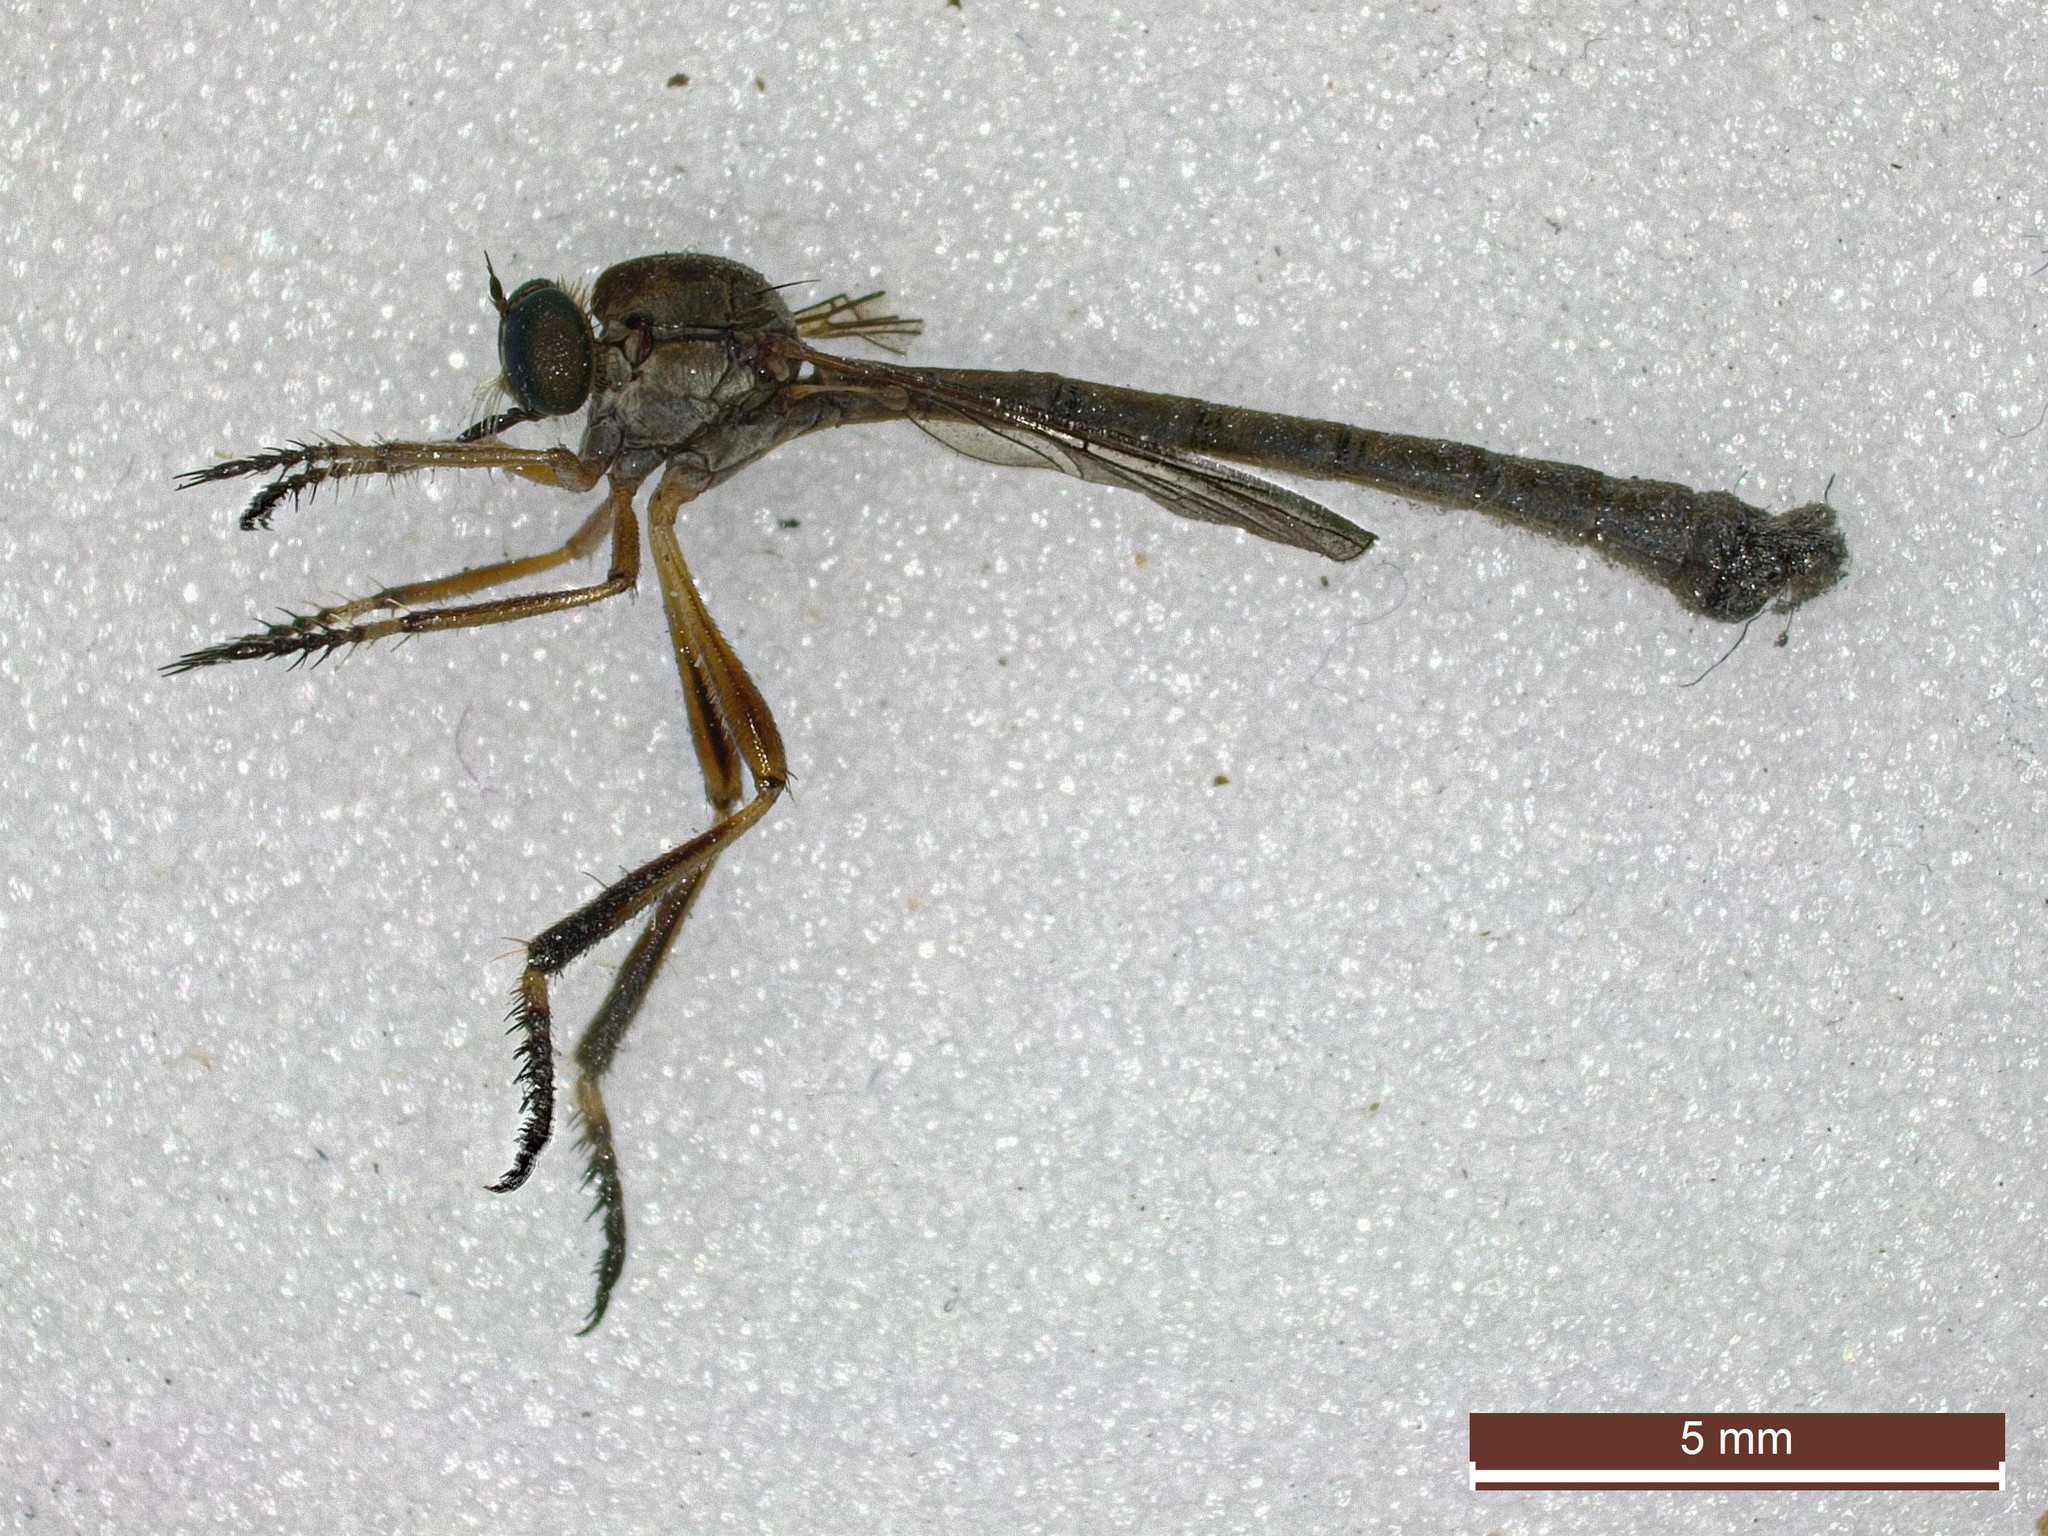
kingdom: Animalia
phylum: Arthropoda
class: Insecta
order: Diptera
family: Asilidae
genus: Leptogaster
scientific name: Leptogaster cylindrica
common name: Striped slender robberfly
